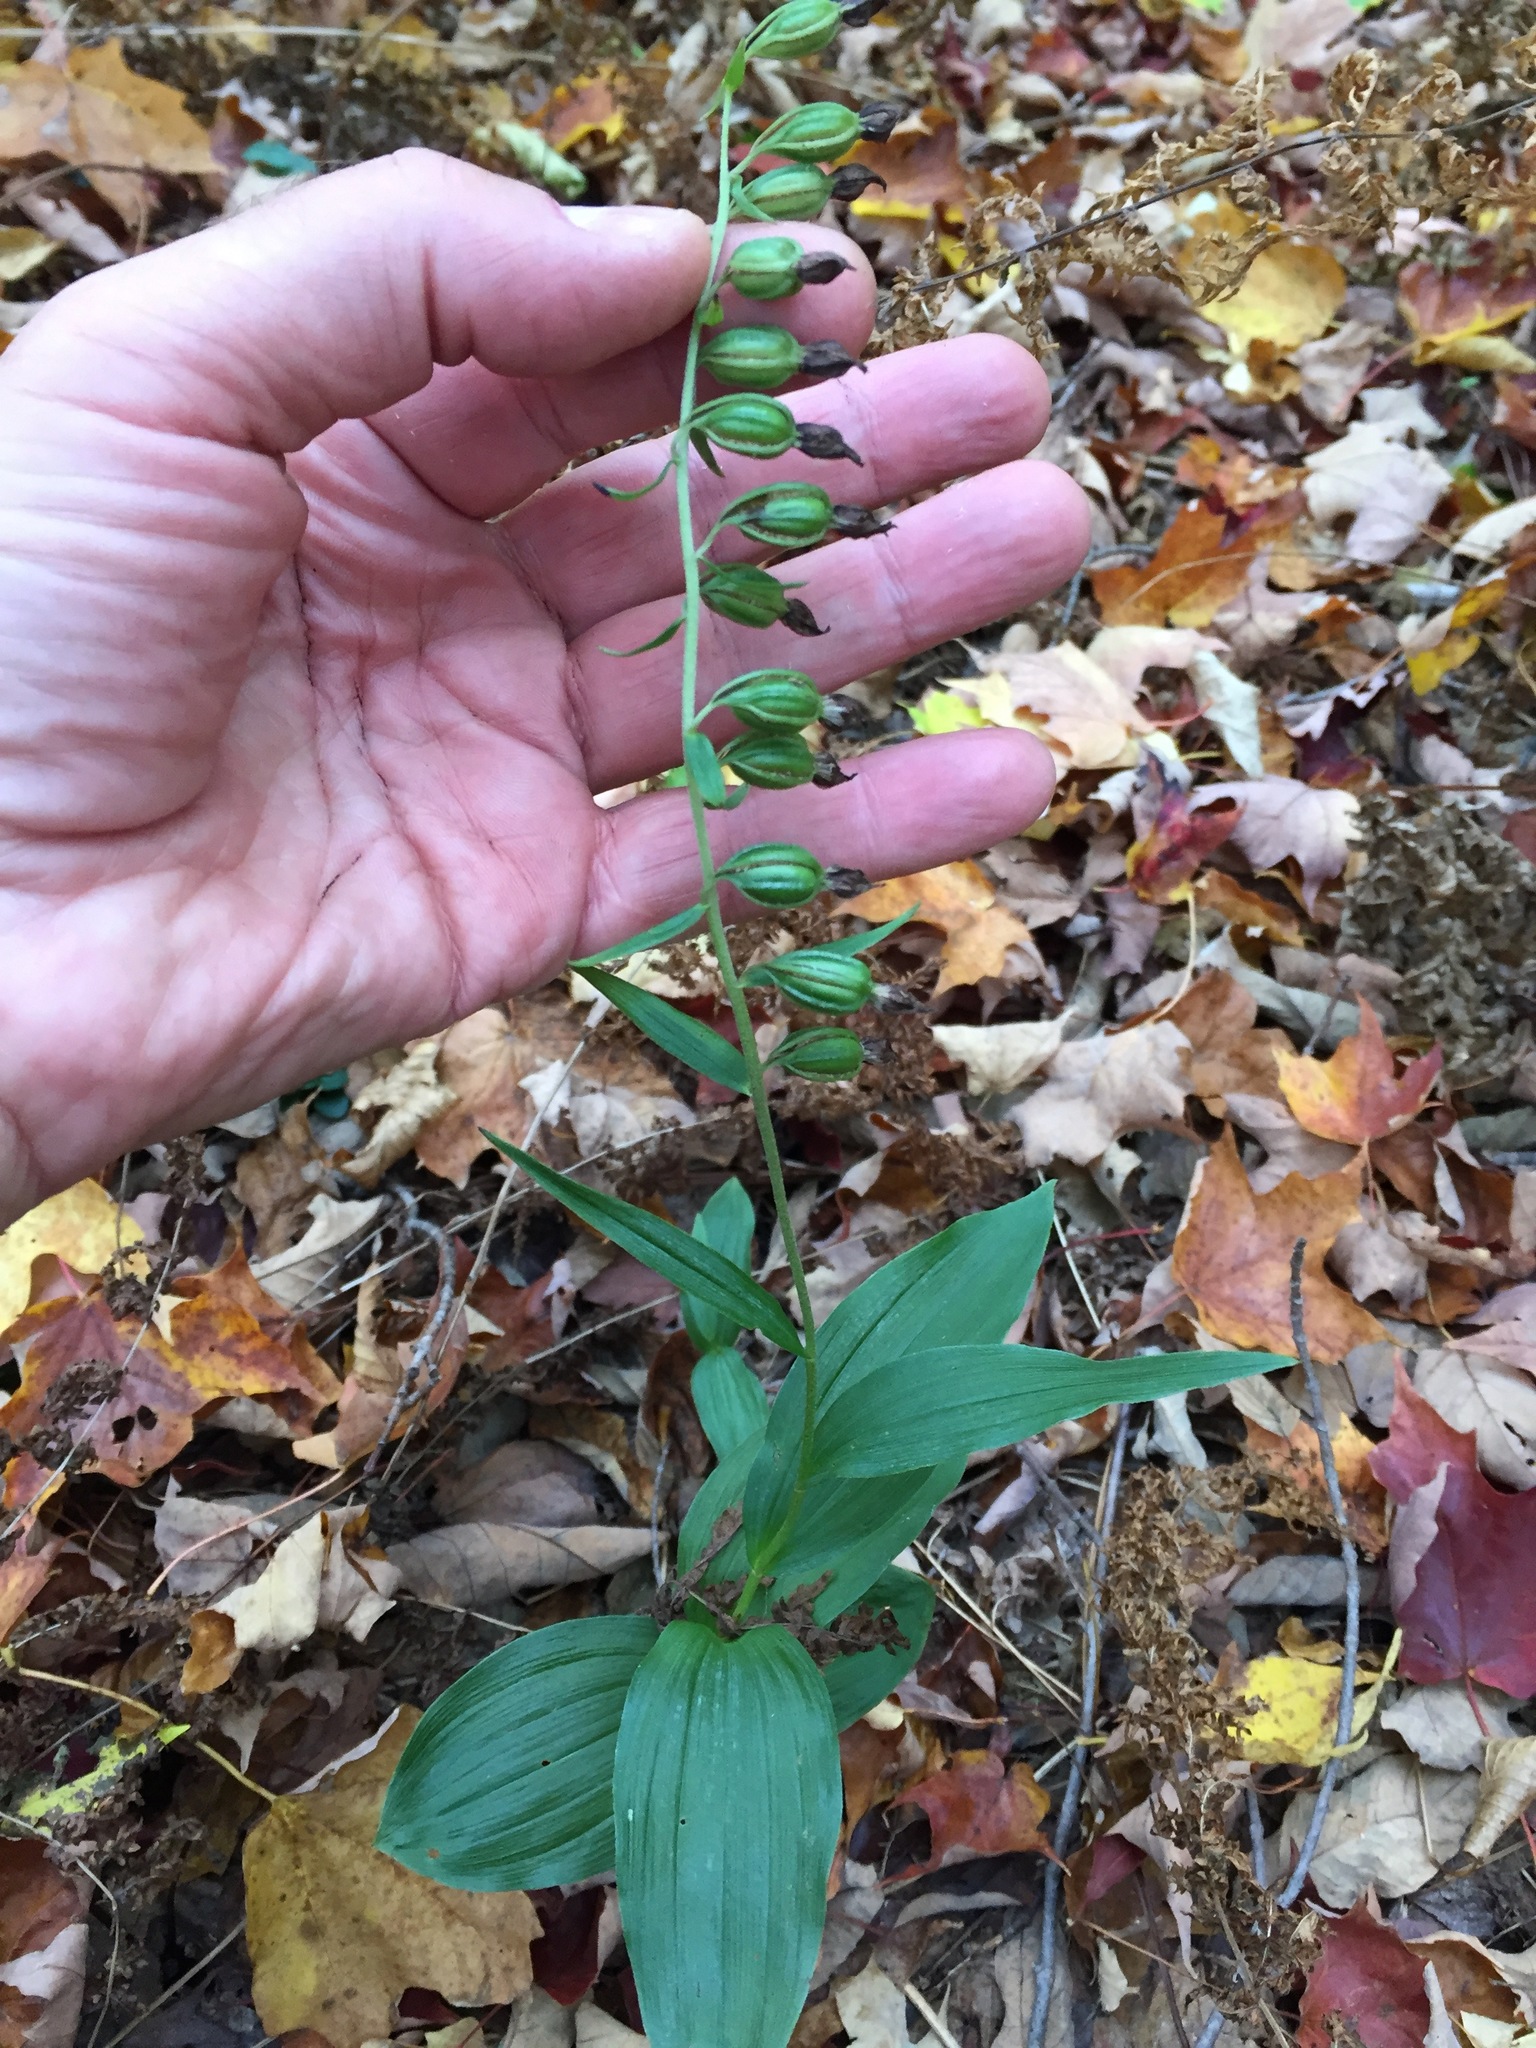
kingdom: Plantae
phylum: Tracheophyta
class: Liliopsida
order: Asparagales
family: Orchidaceae
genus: Epipactis
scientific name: Epipactis helleborine
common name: Broad-leaved helleborine
